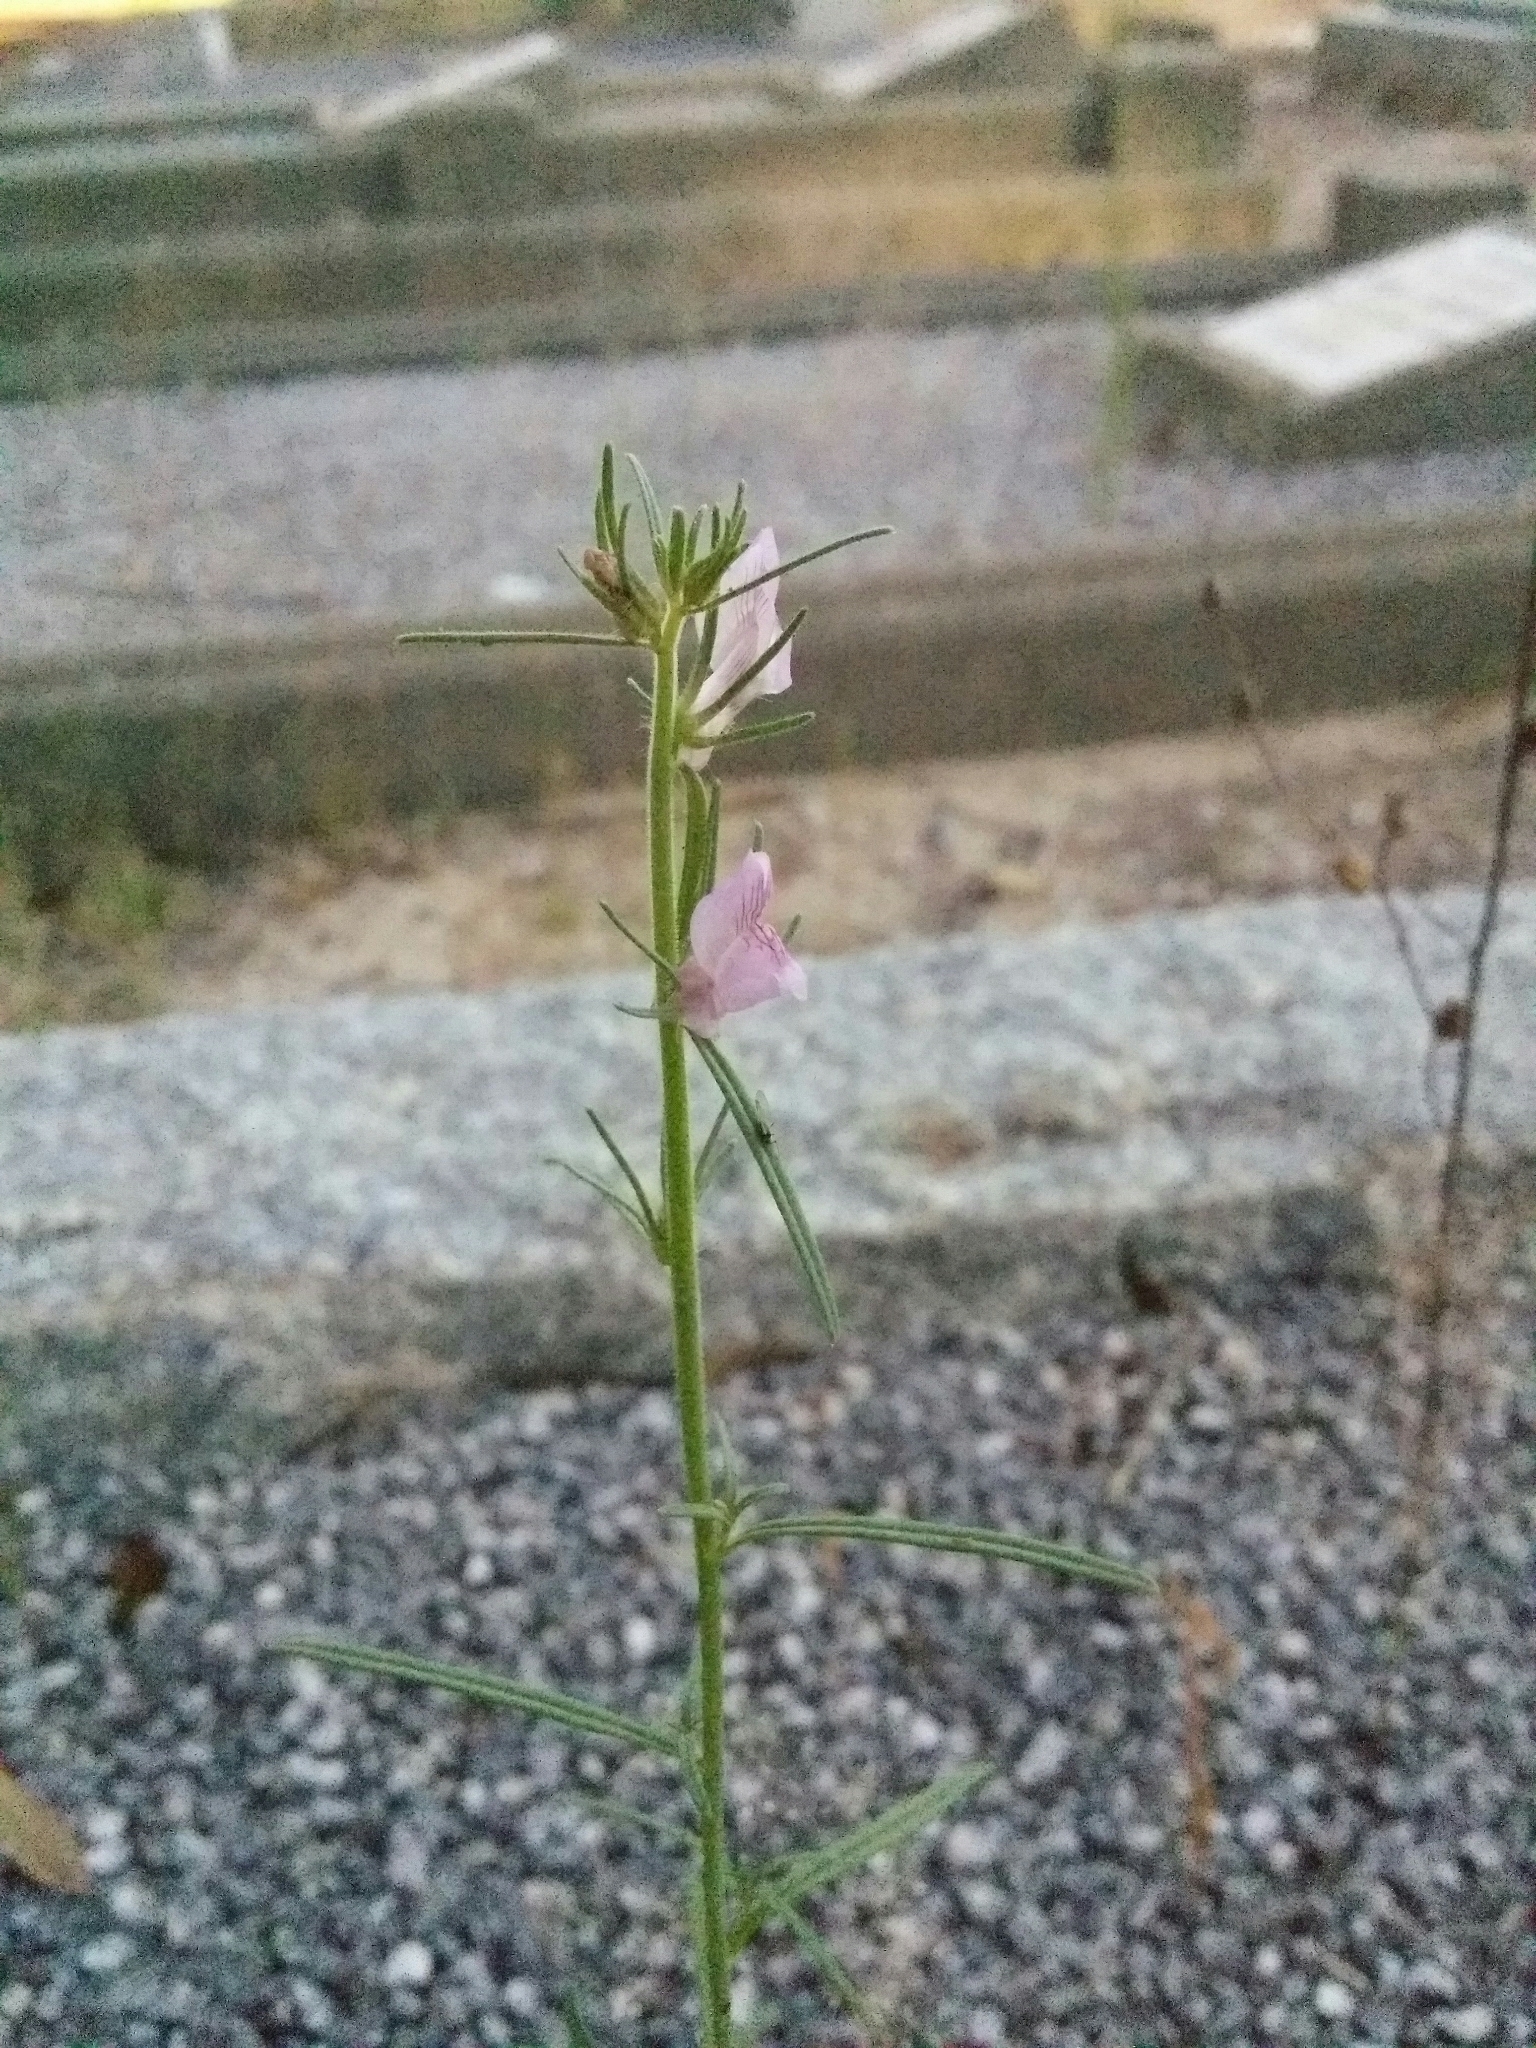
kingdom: Plantae
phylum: Tracheophyta
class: Magnoliopsida
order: Lamiales
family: Plantaginaceae
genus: Misopates
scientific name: Misopates orontium
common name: Weasel's-snout
